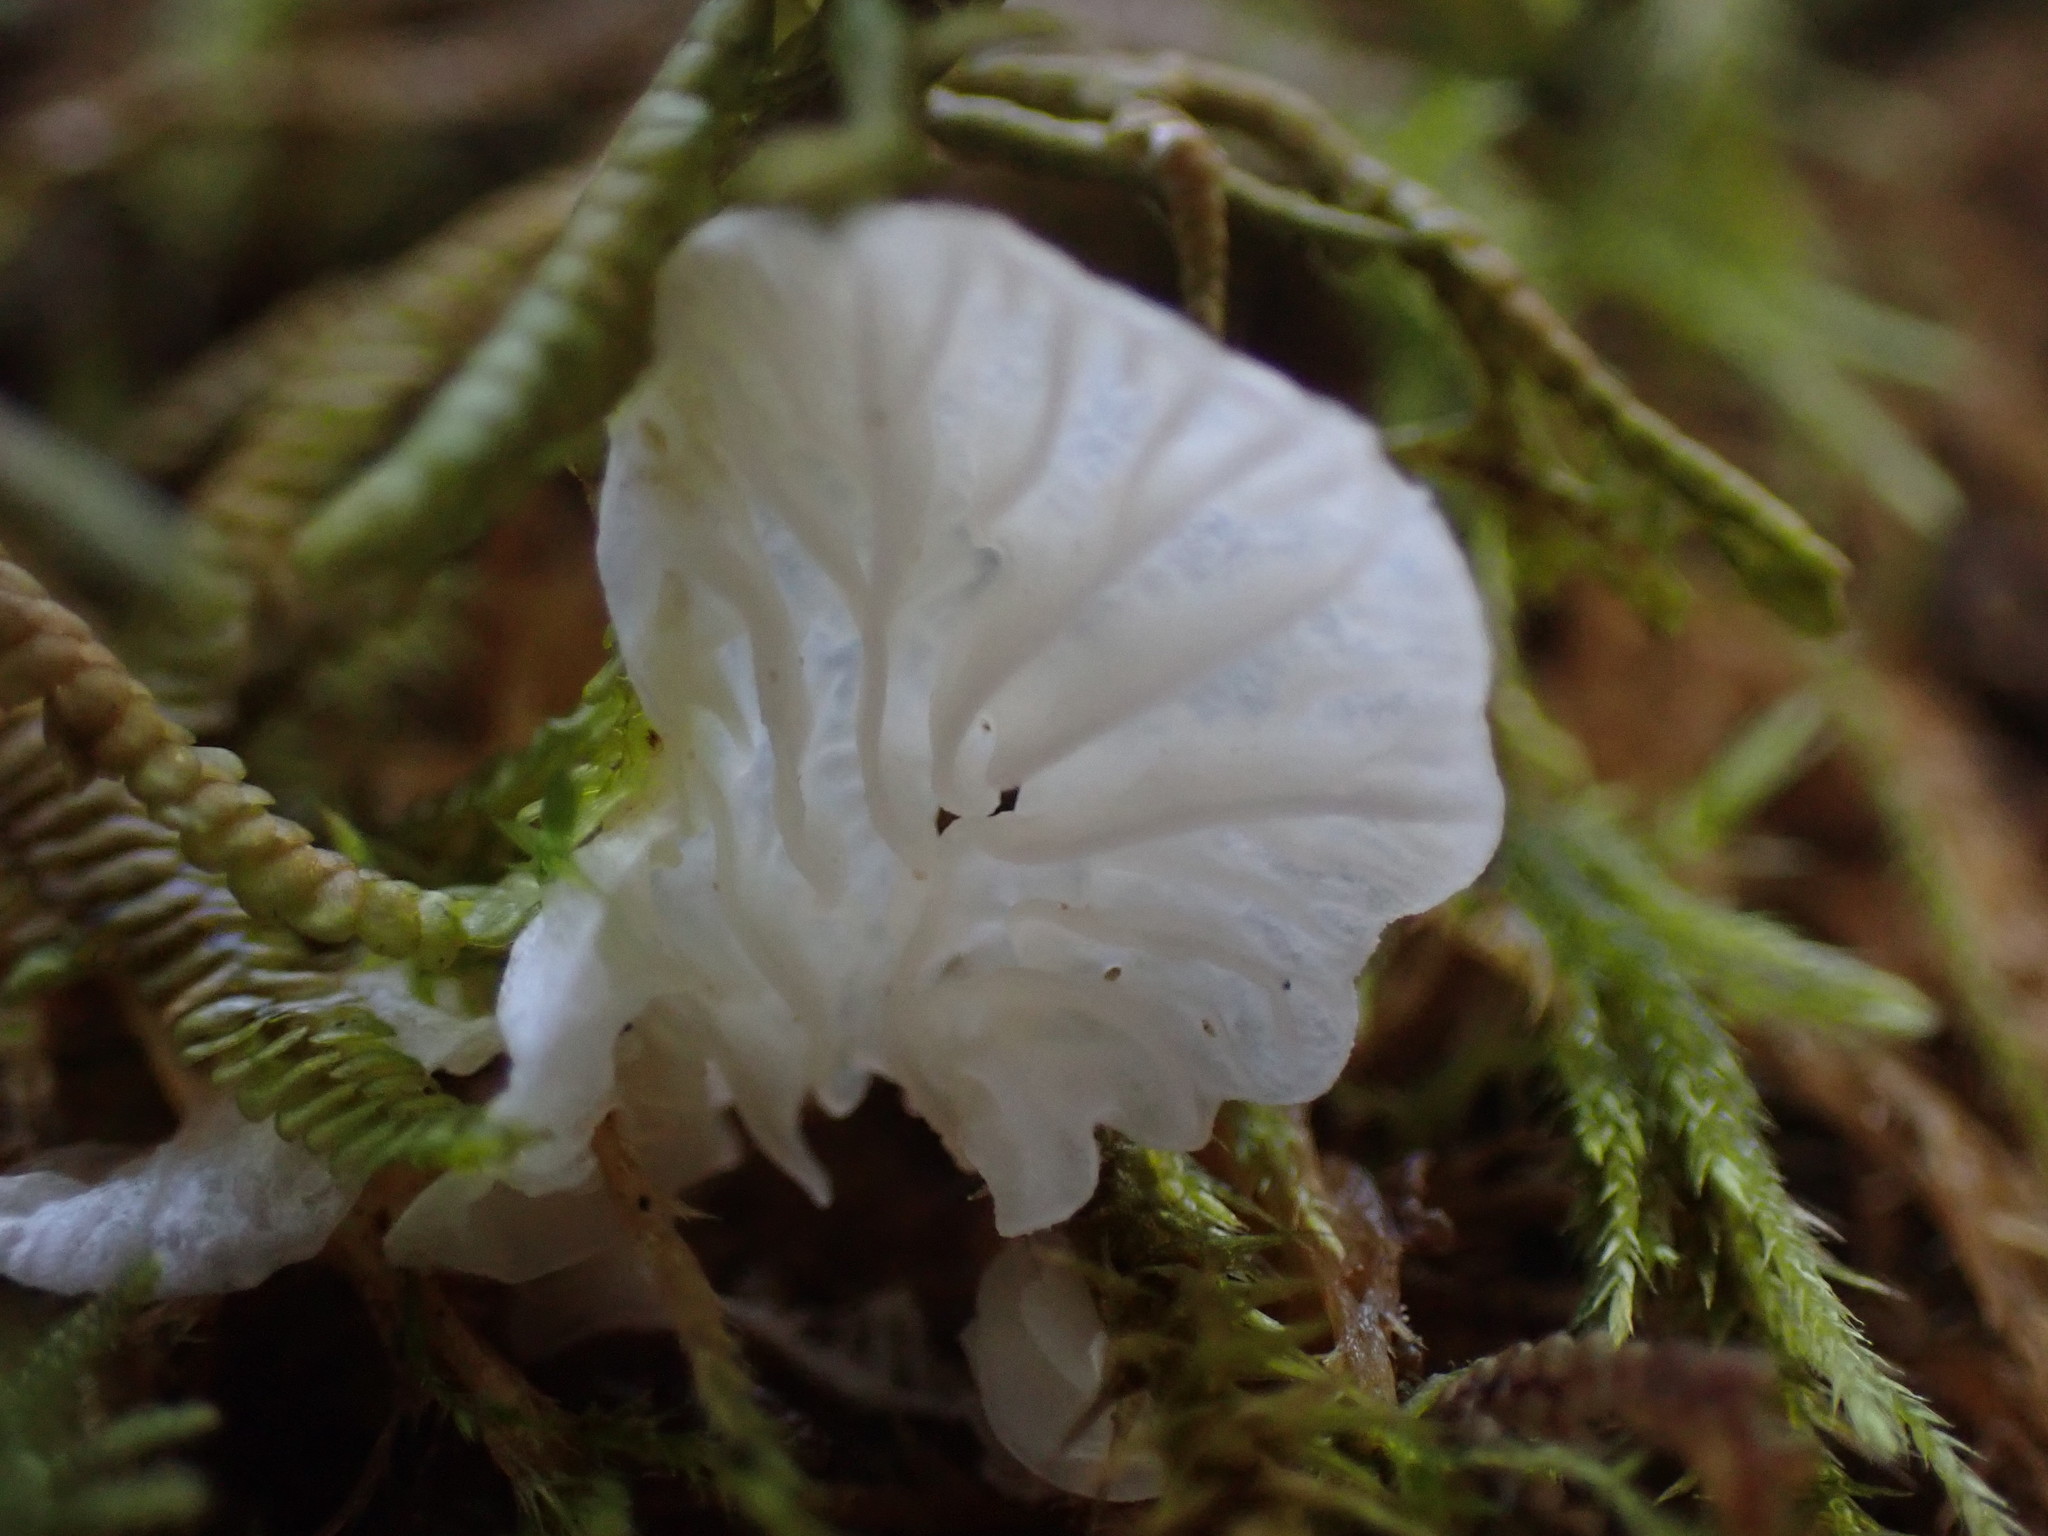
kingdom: Fungi
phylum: Basidiomycota
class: Agaricomycetes
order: Agaricales
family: Omphalotaceae
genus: Marasmiellus
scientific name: Marasmiellus candidus
